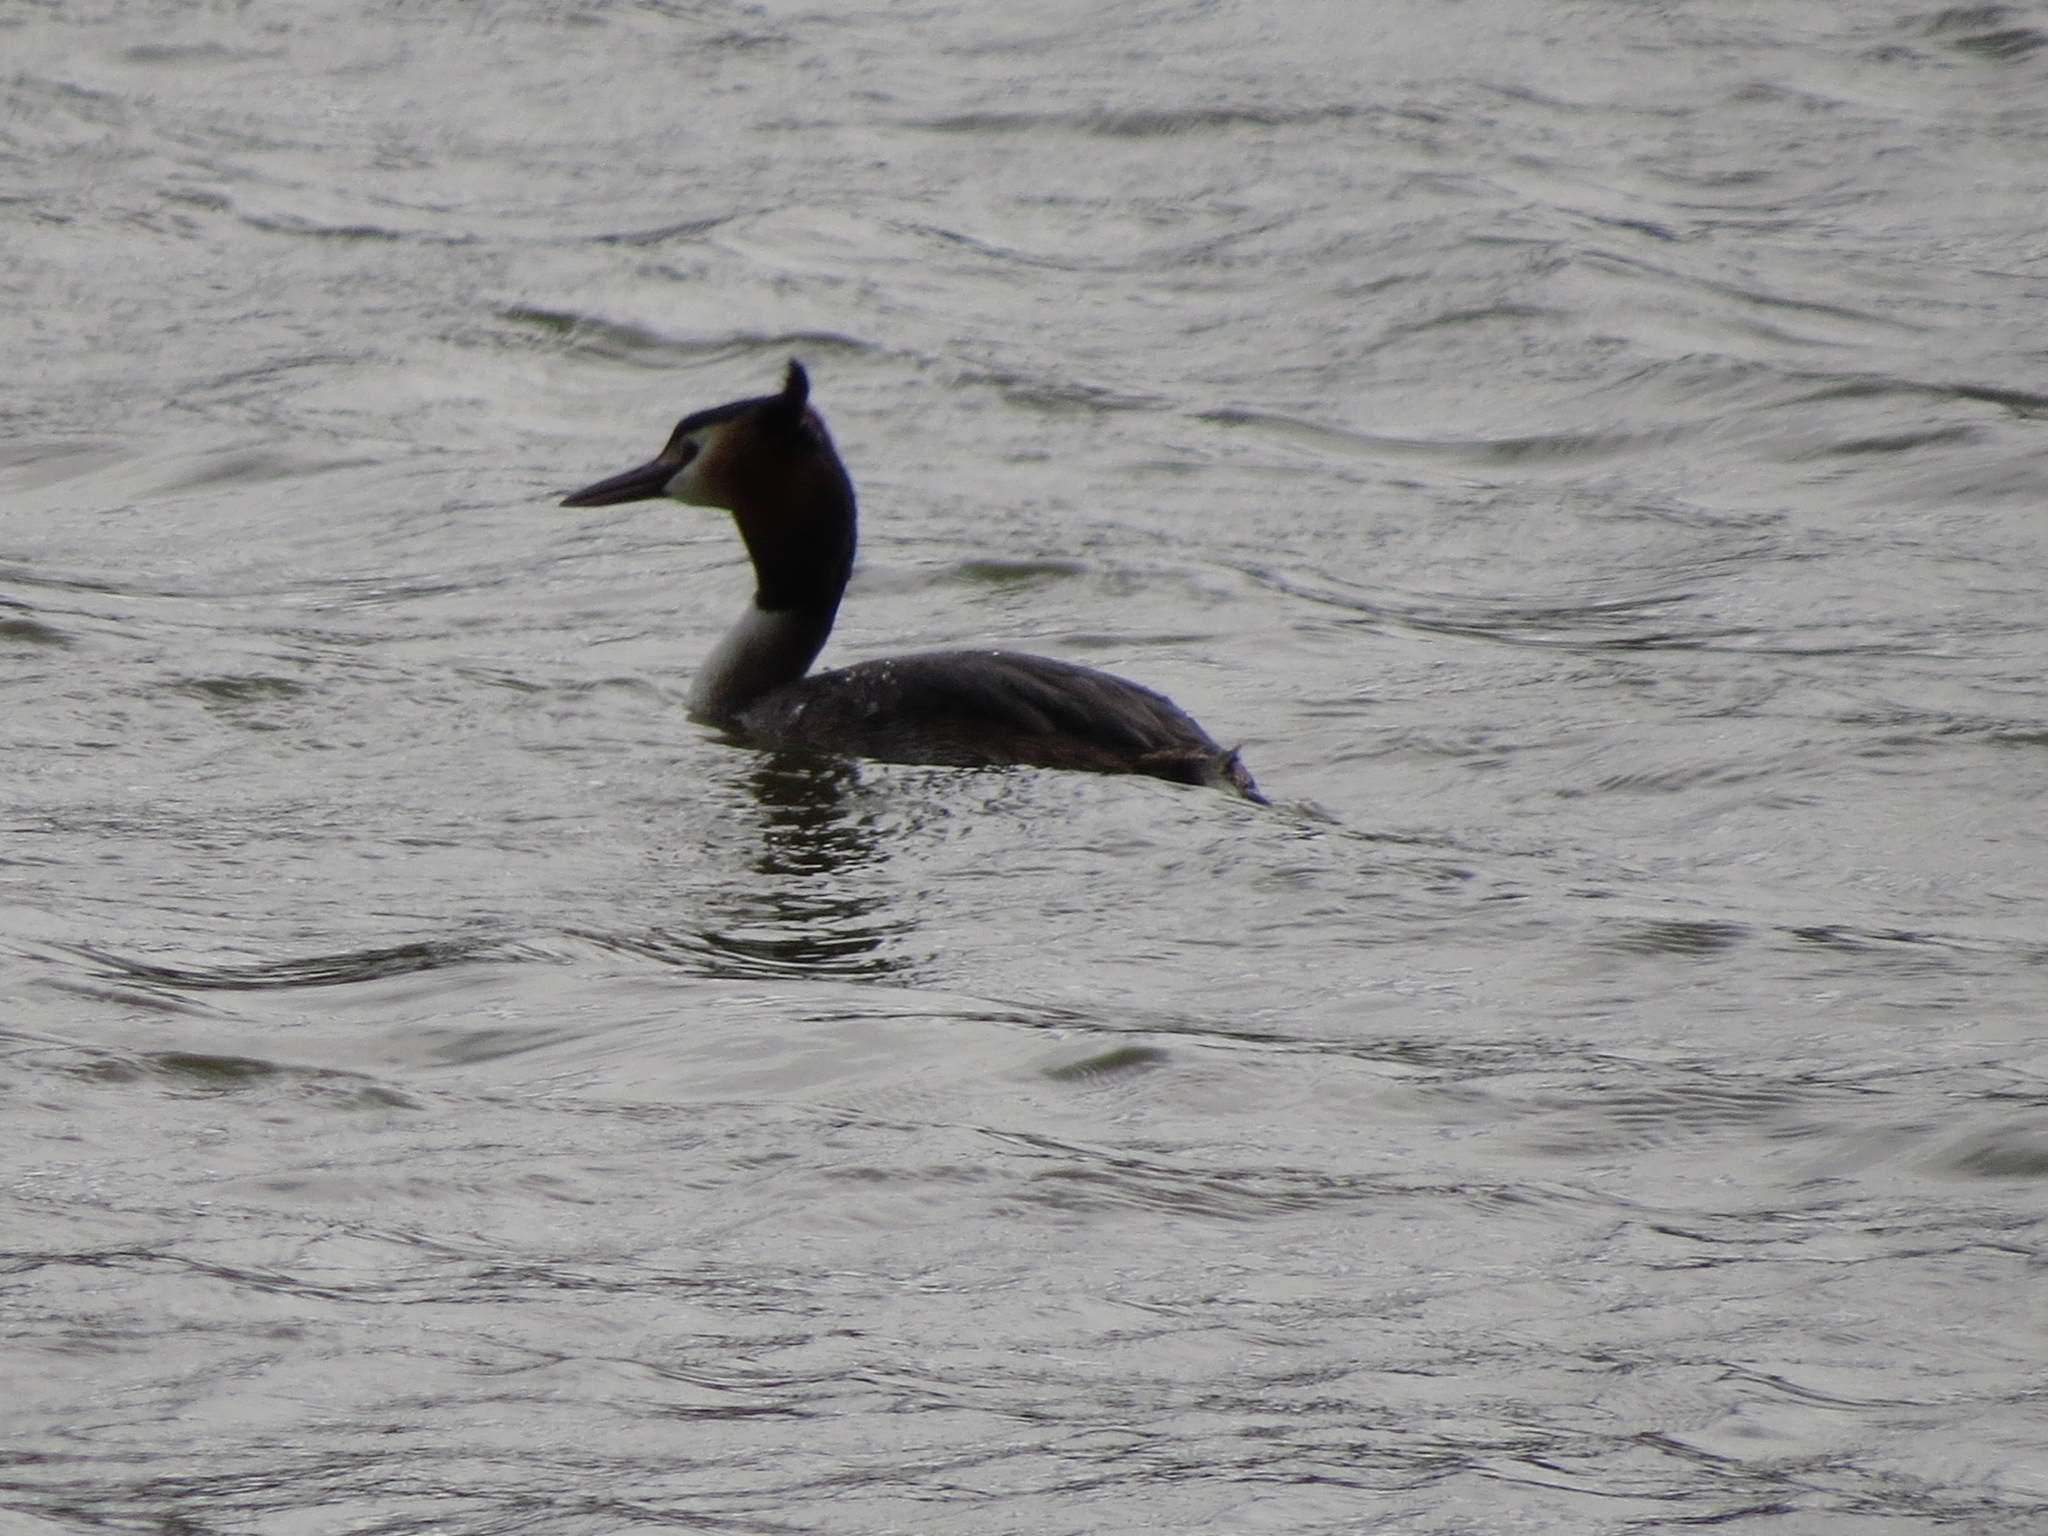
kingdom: Animalia
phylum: Chordata
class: Aves
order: Podicipediformes
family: Podicipedidae
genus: Podiceps
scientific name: Podiceps cristatus
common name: Great crested grebe
